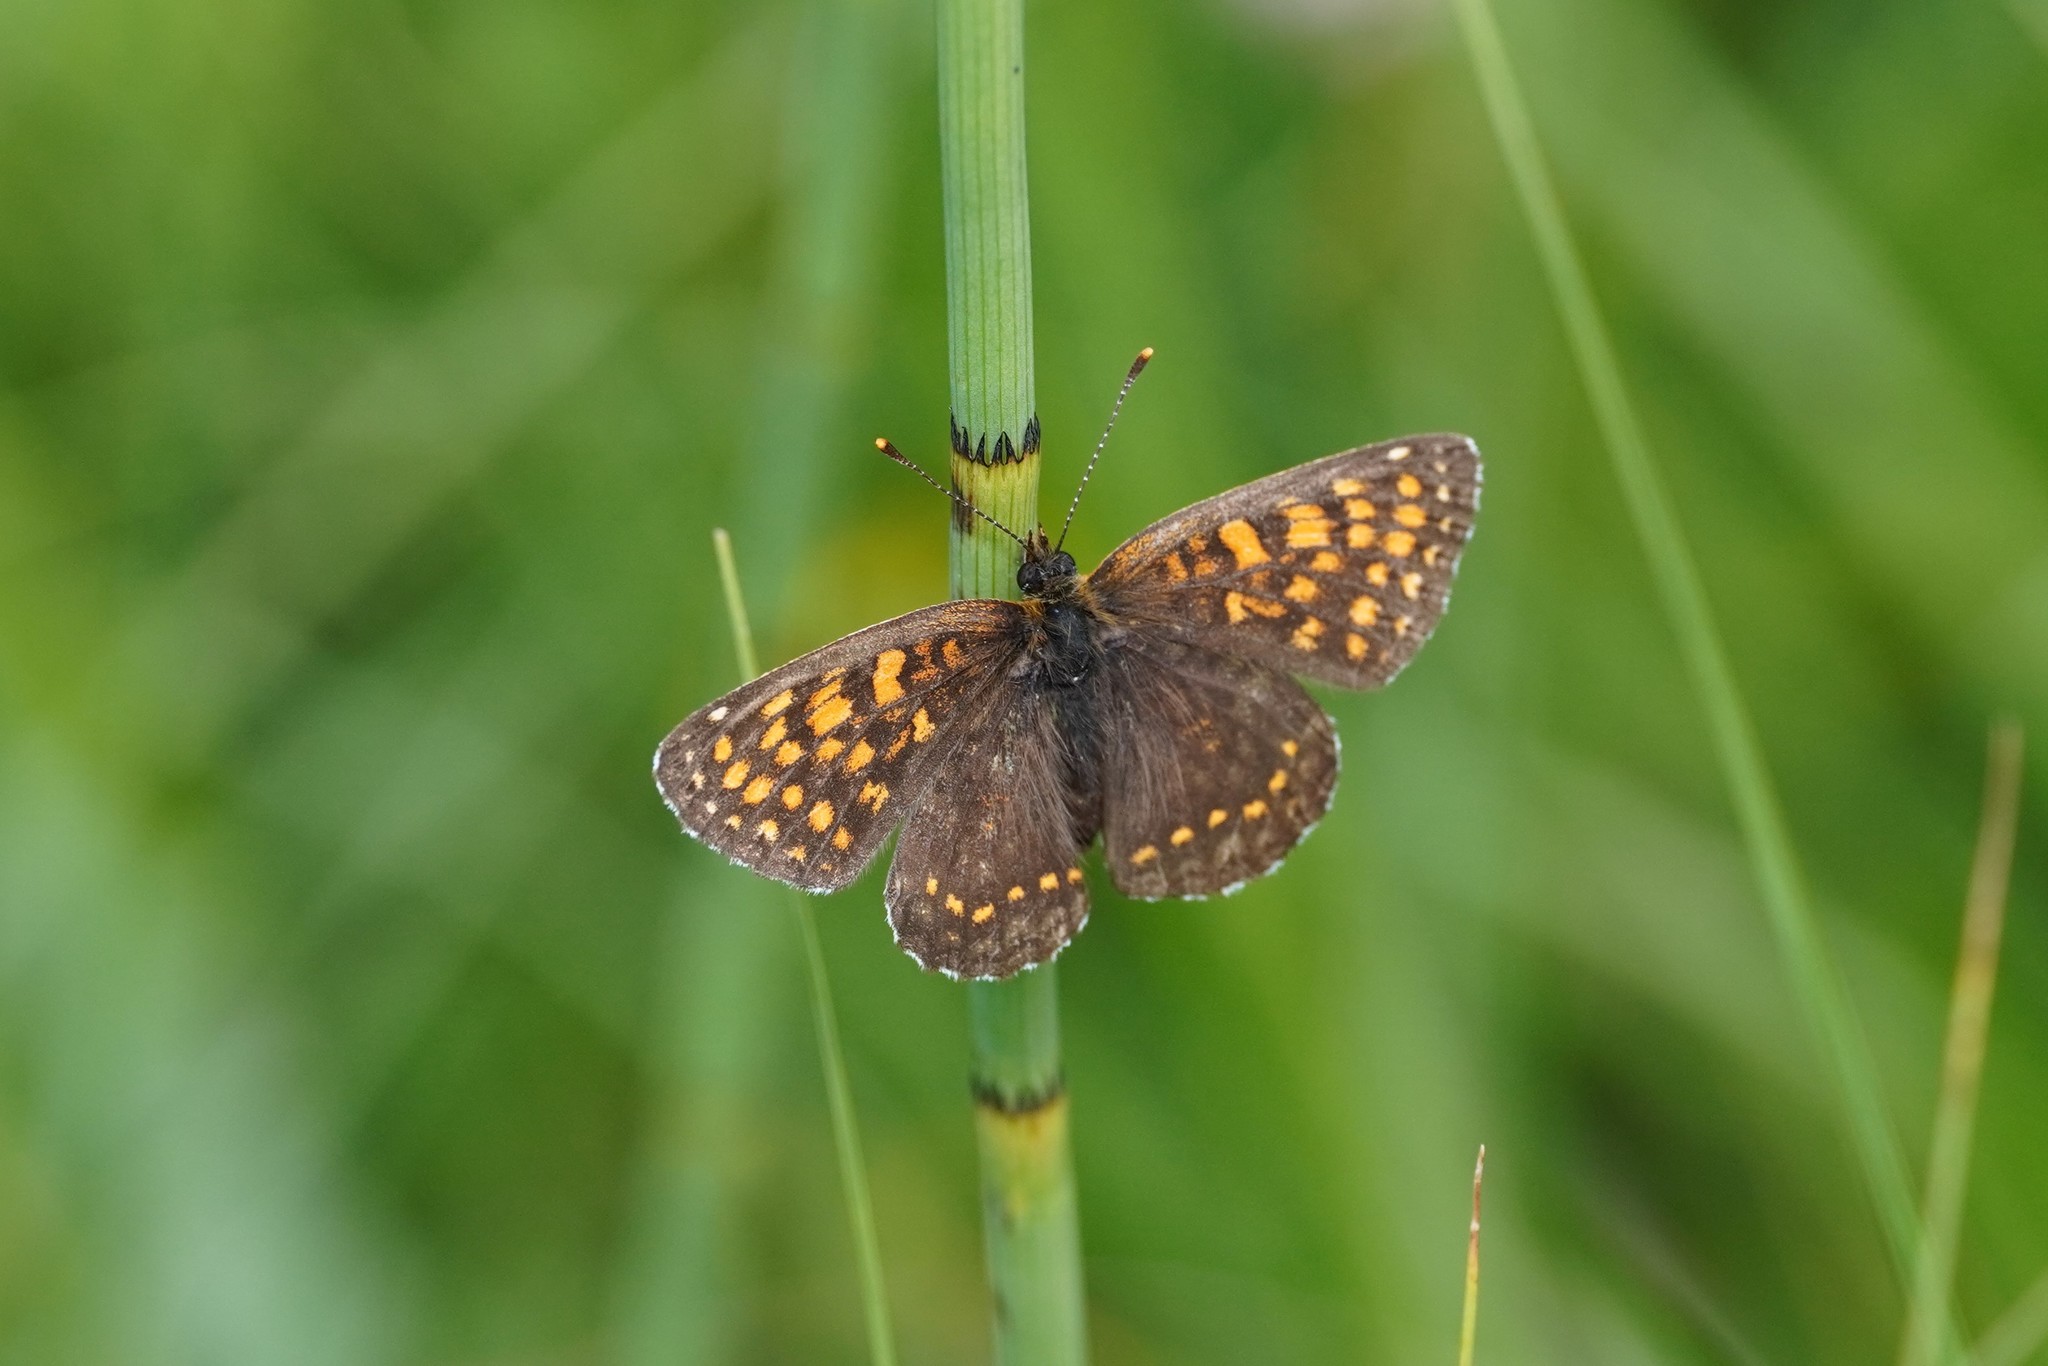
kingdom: Animalia
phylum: Arthropoda
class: Insecta
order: Lepidoptera
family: Nymphalidae
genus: Melitaea
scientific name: Melitaea diamina
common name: False heath fritillary
